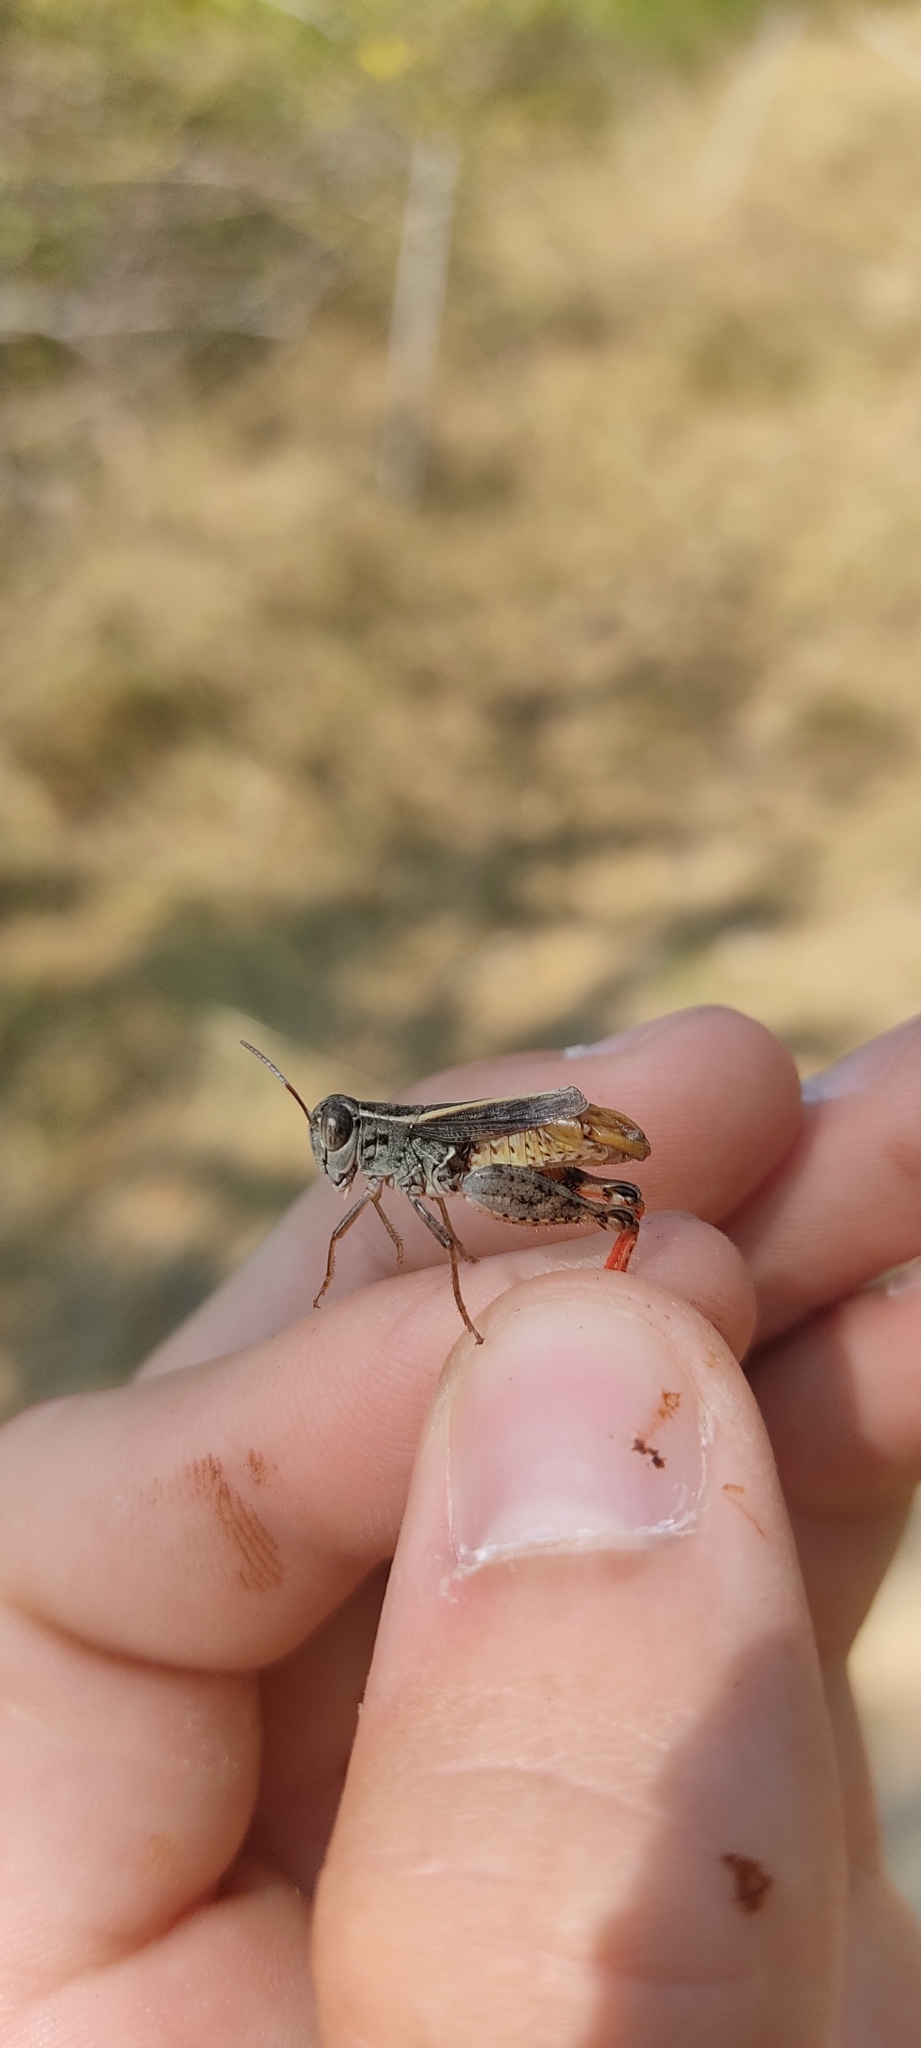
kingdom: Animalia
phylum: Arthropoda
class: Insecta
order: Orthoptera
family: Acrididae
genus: Calliptamus
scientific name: Calliptamus siciliae
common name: Pygmy pincer grasshopper
